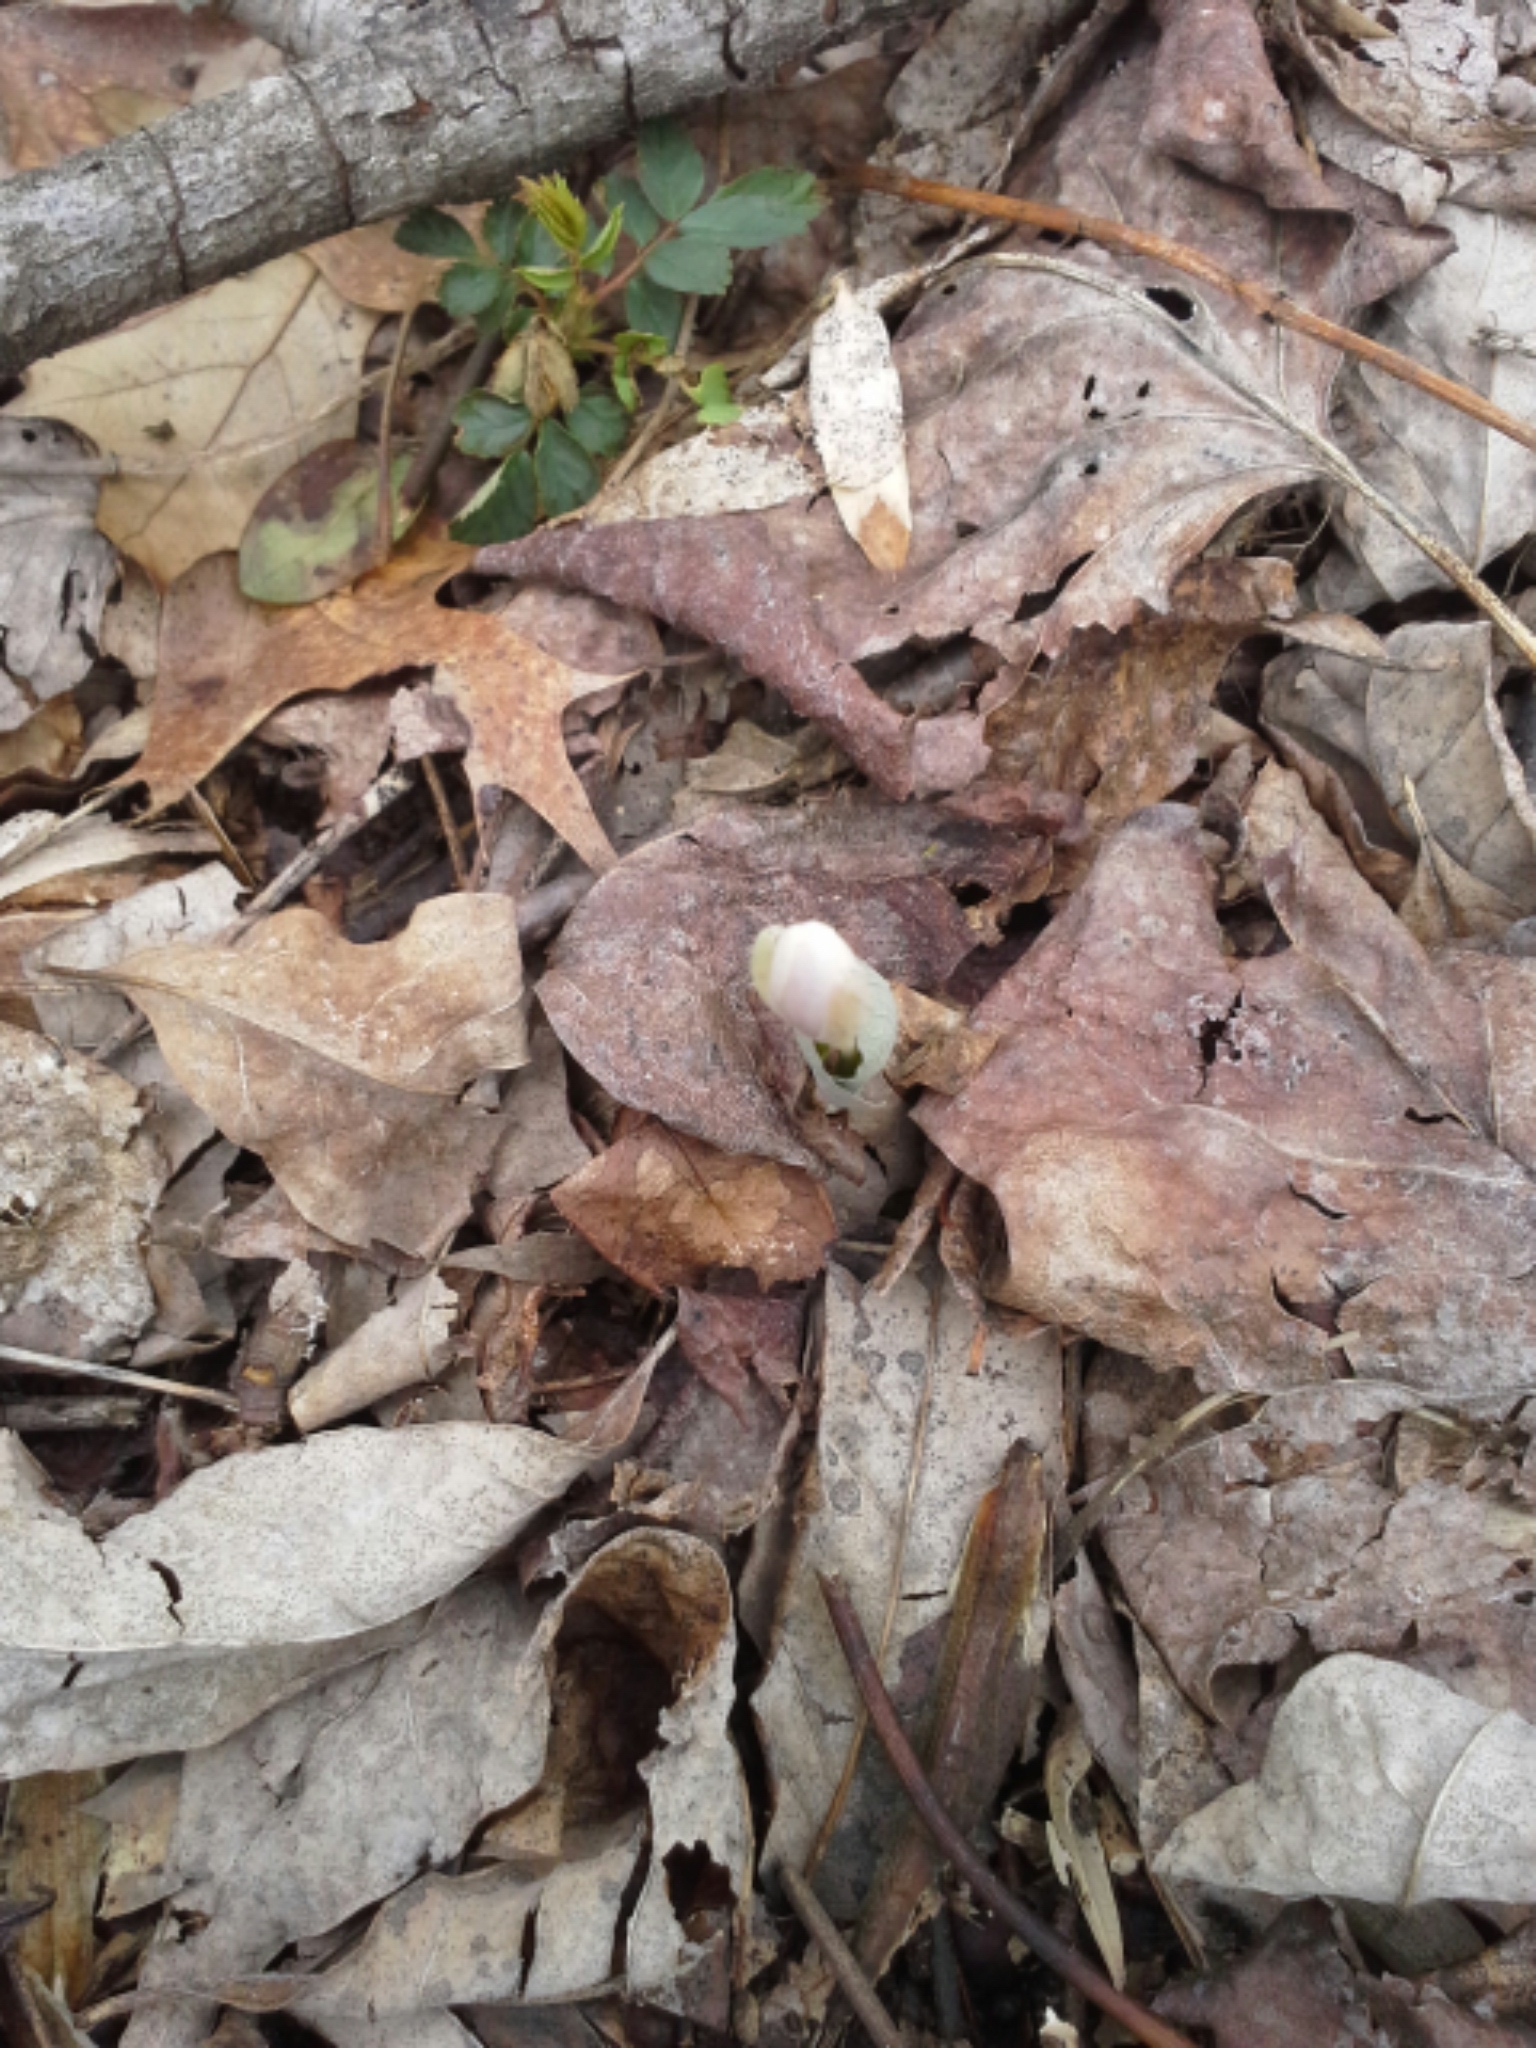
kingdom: Plantae
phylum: Tracheophyta
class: Magnoliopsida
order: Ranunculales
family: Papaveraceae
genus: Sanguinaria
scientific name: Sanguinaria canadensis
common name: Bloodroot
